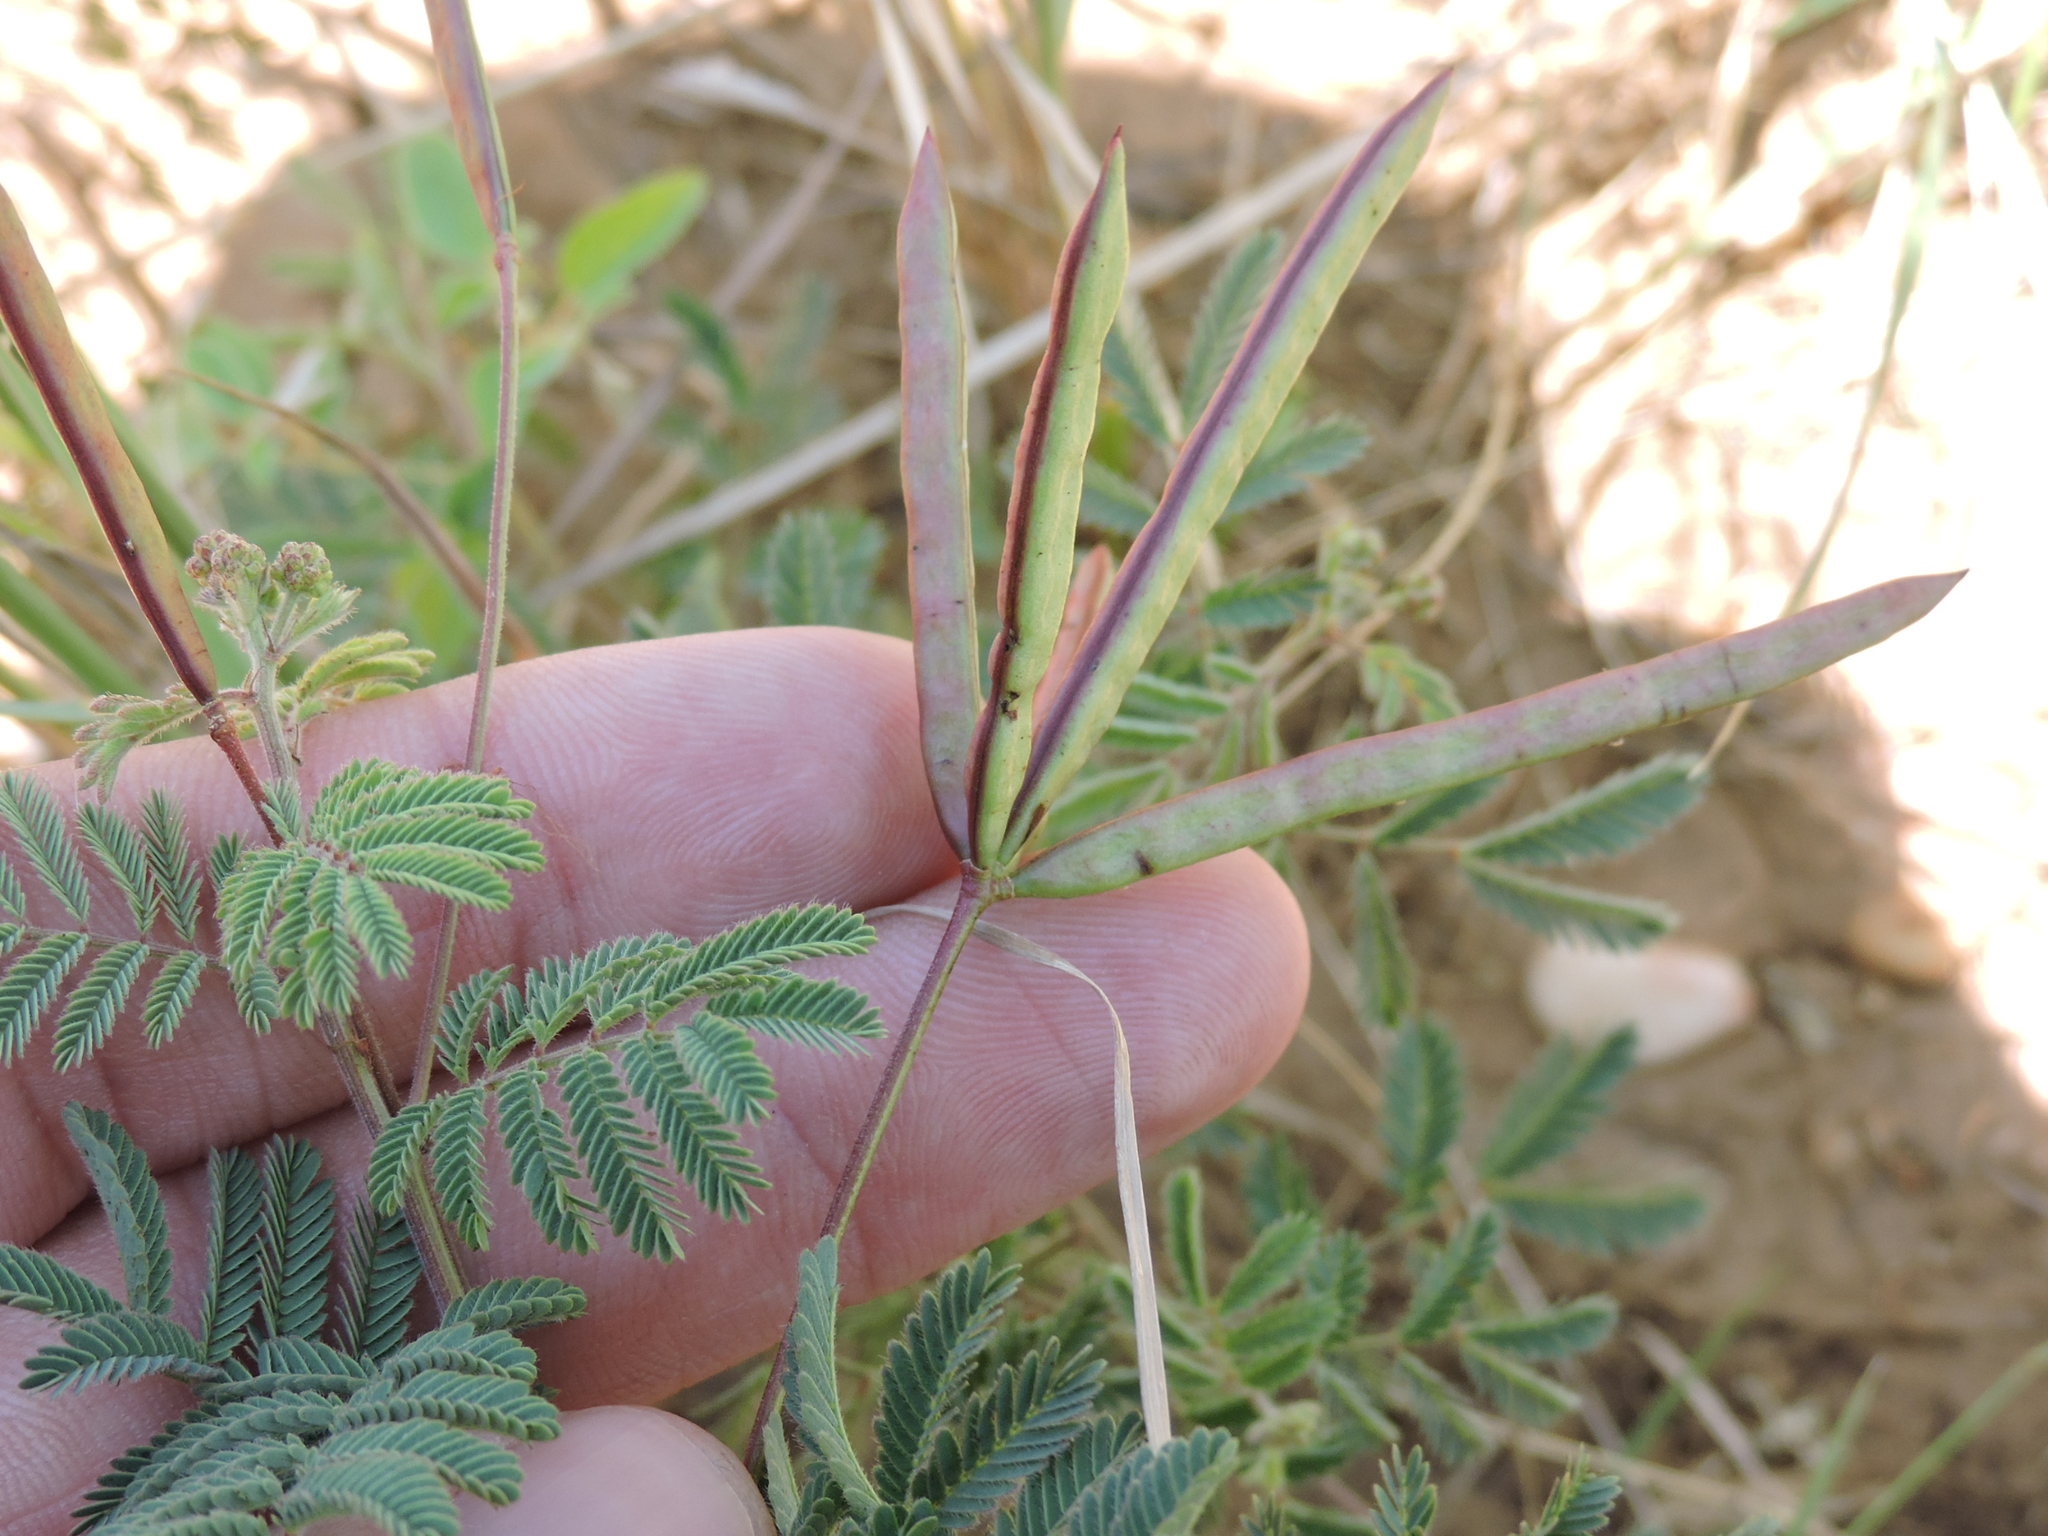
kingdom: Plantae
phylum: Tracheophyta
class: Magnoliopsida
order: Fabales
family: Fabaceae
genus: Desmanthus
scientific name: Desmanthus leptolobus
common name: Prairie-mimosa
